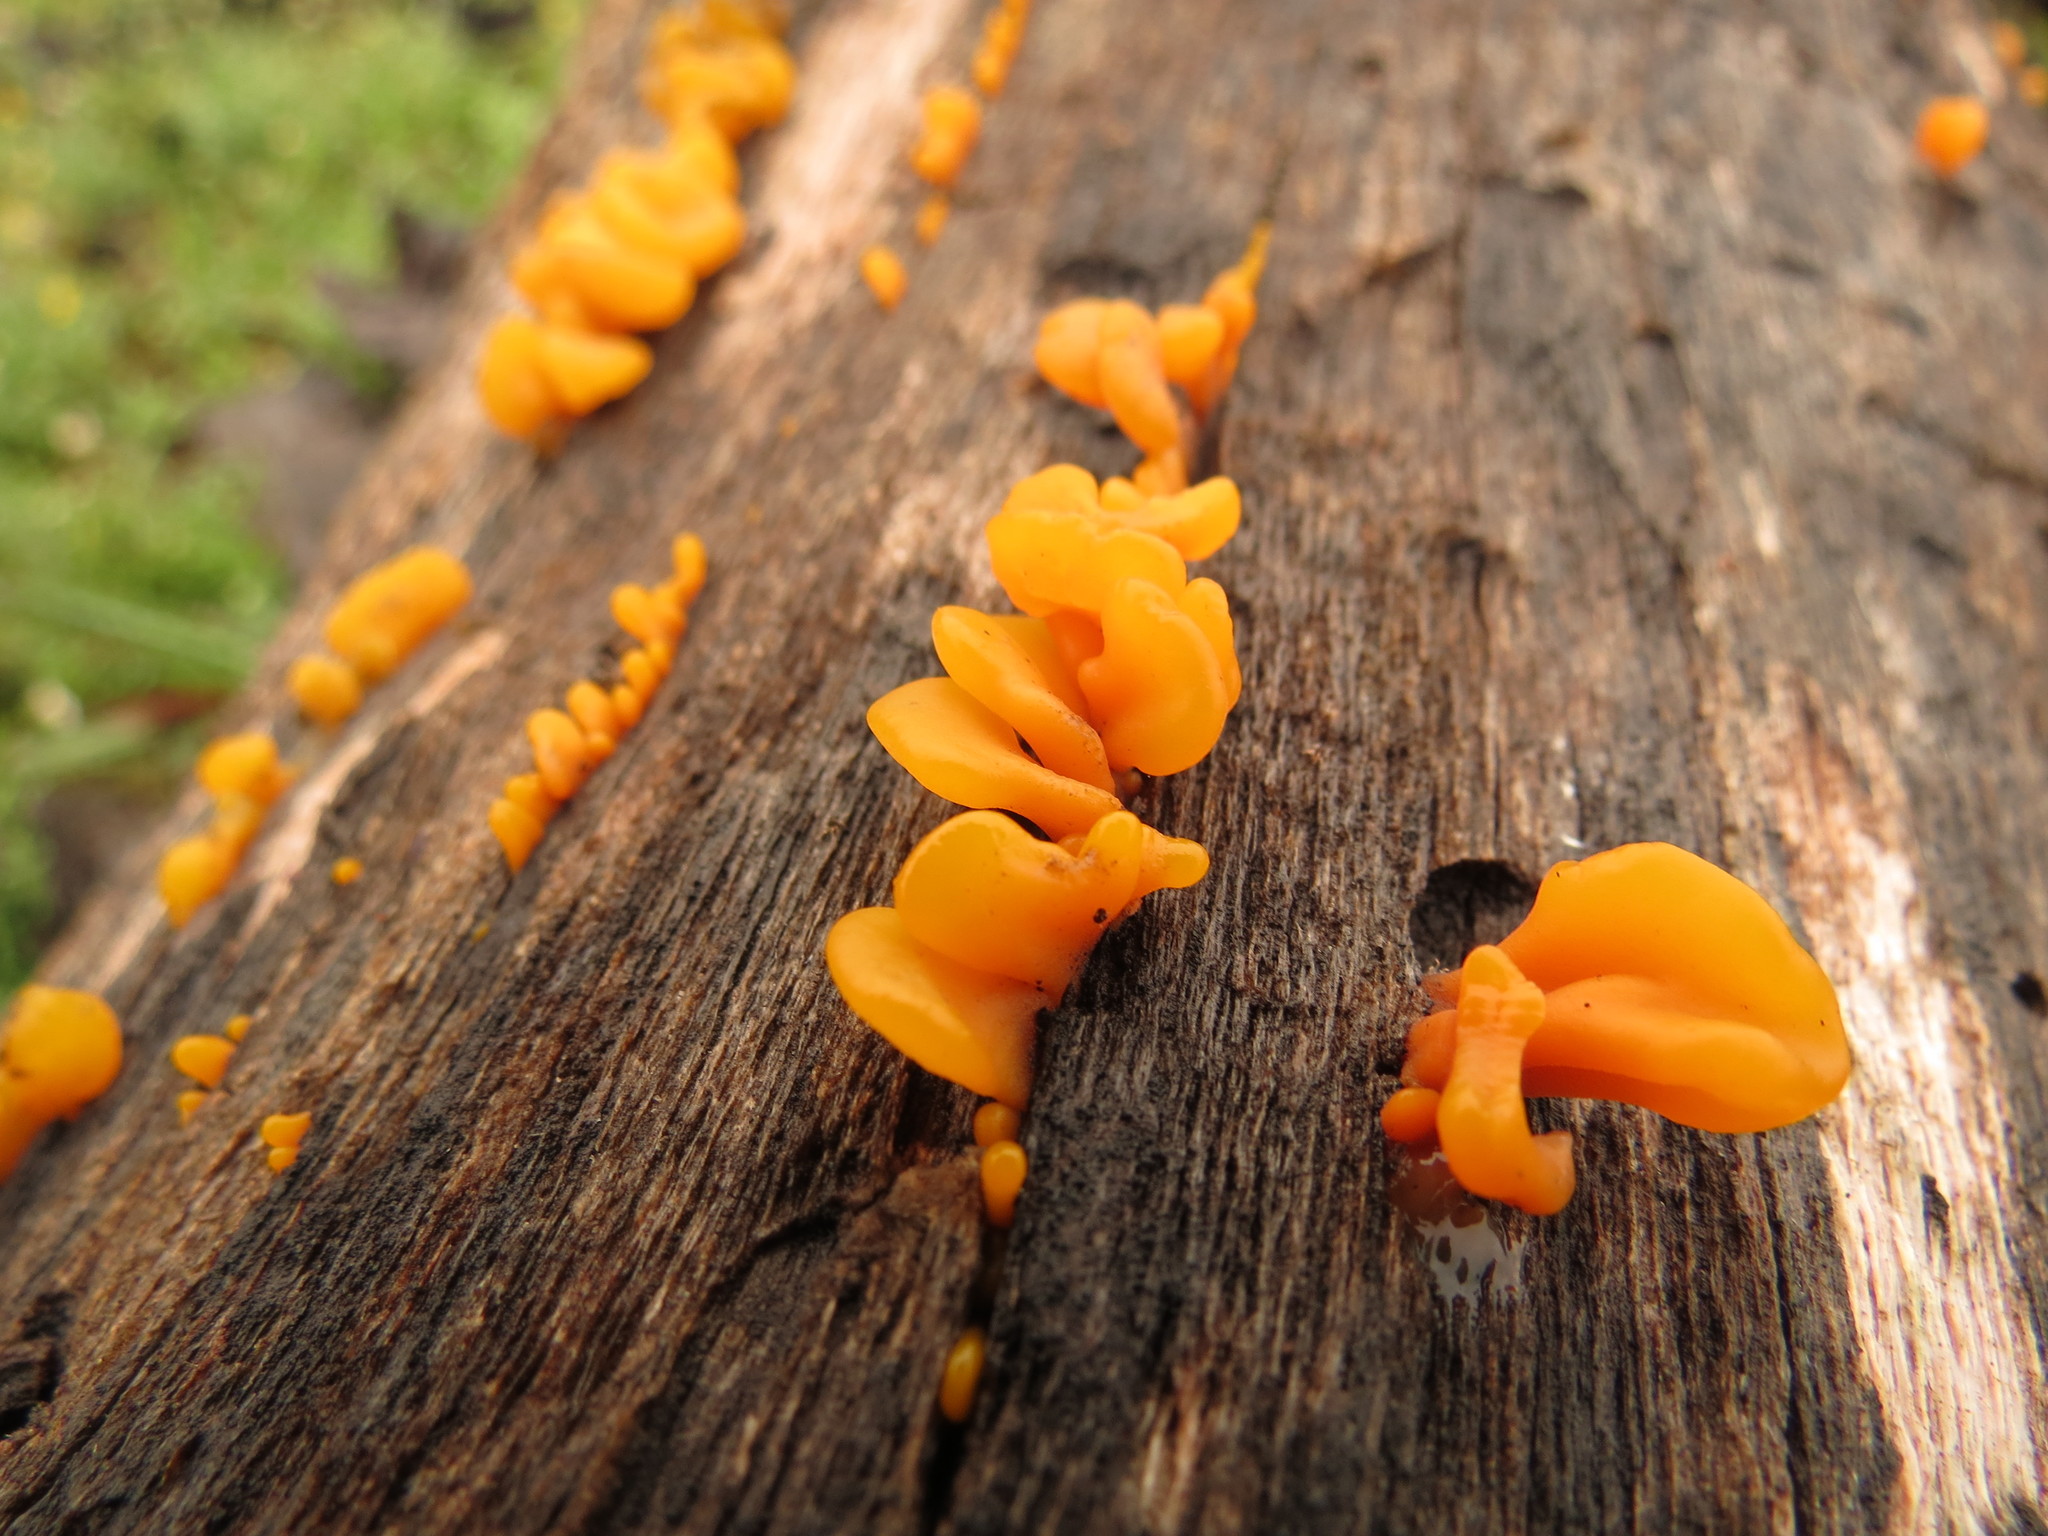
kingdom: Fungi
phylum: Basidiomycota
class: Dacrymycetes
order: Dacrymycetales
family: Dacrymycetaceae
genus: Dacrymyces
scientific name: Dacrymyces chrysospermus
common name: Orange jelly spot
